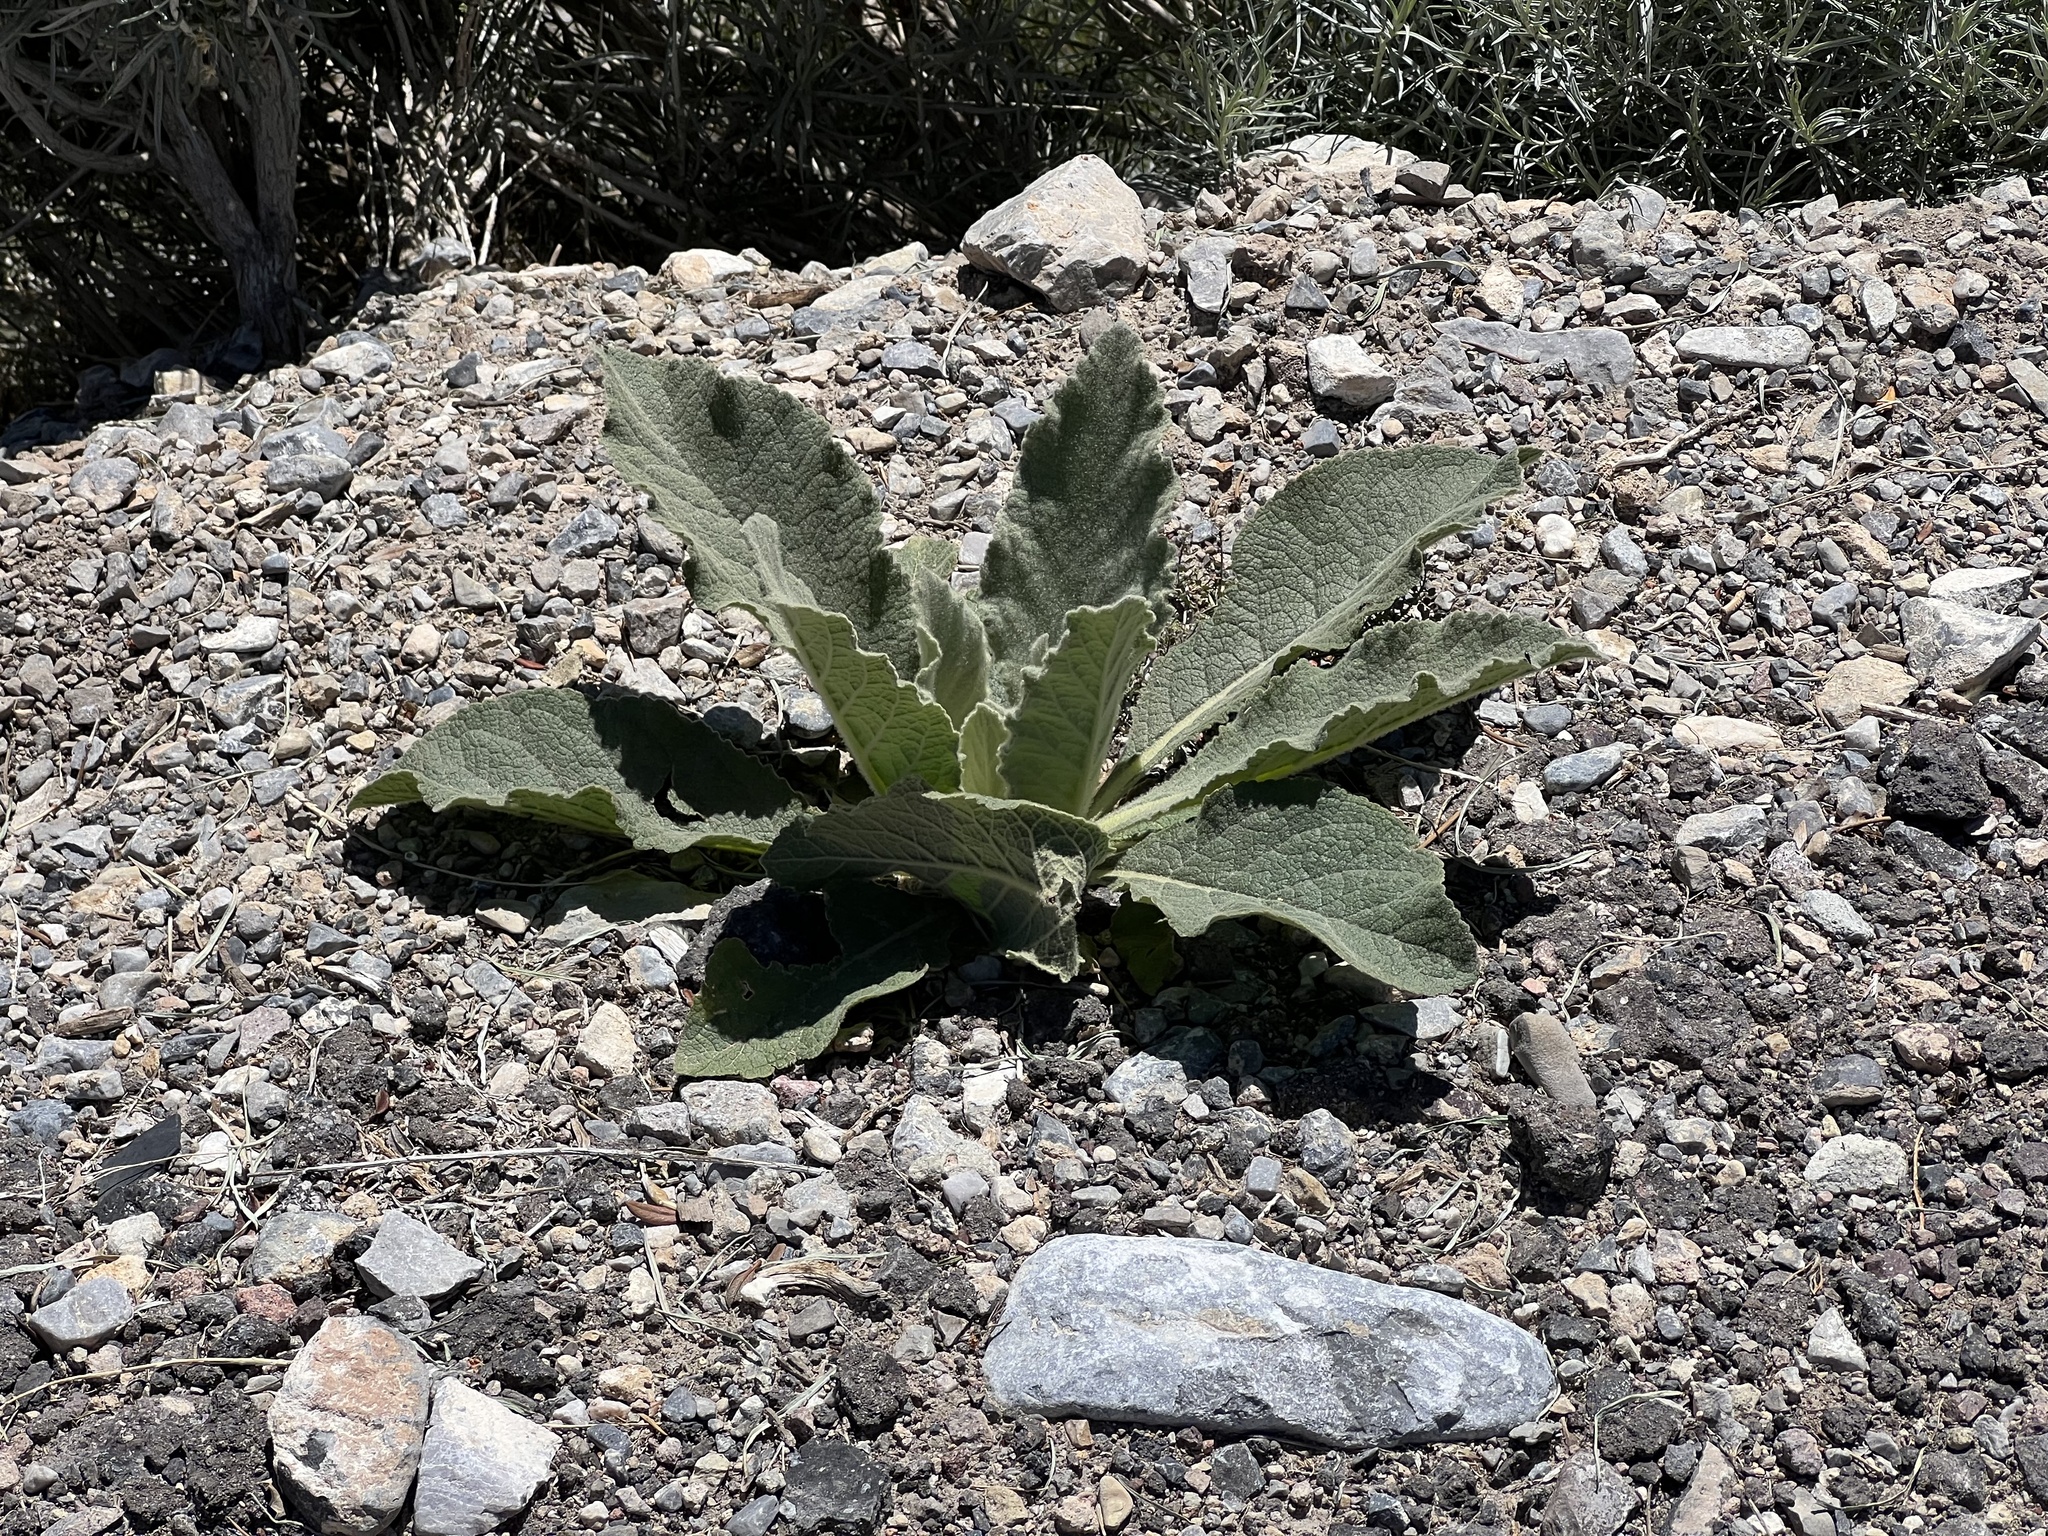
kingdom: Plantae
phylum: Tracheophyta
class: Magnoliopsida
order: Lamiales
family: Scrophulariaceae
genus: Verbascum
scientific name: Verbascum thapsus
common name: Common mullein
